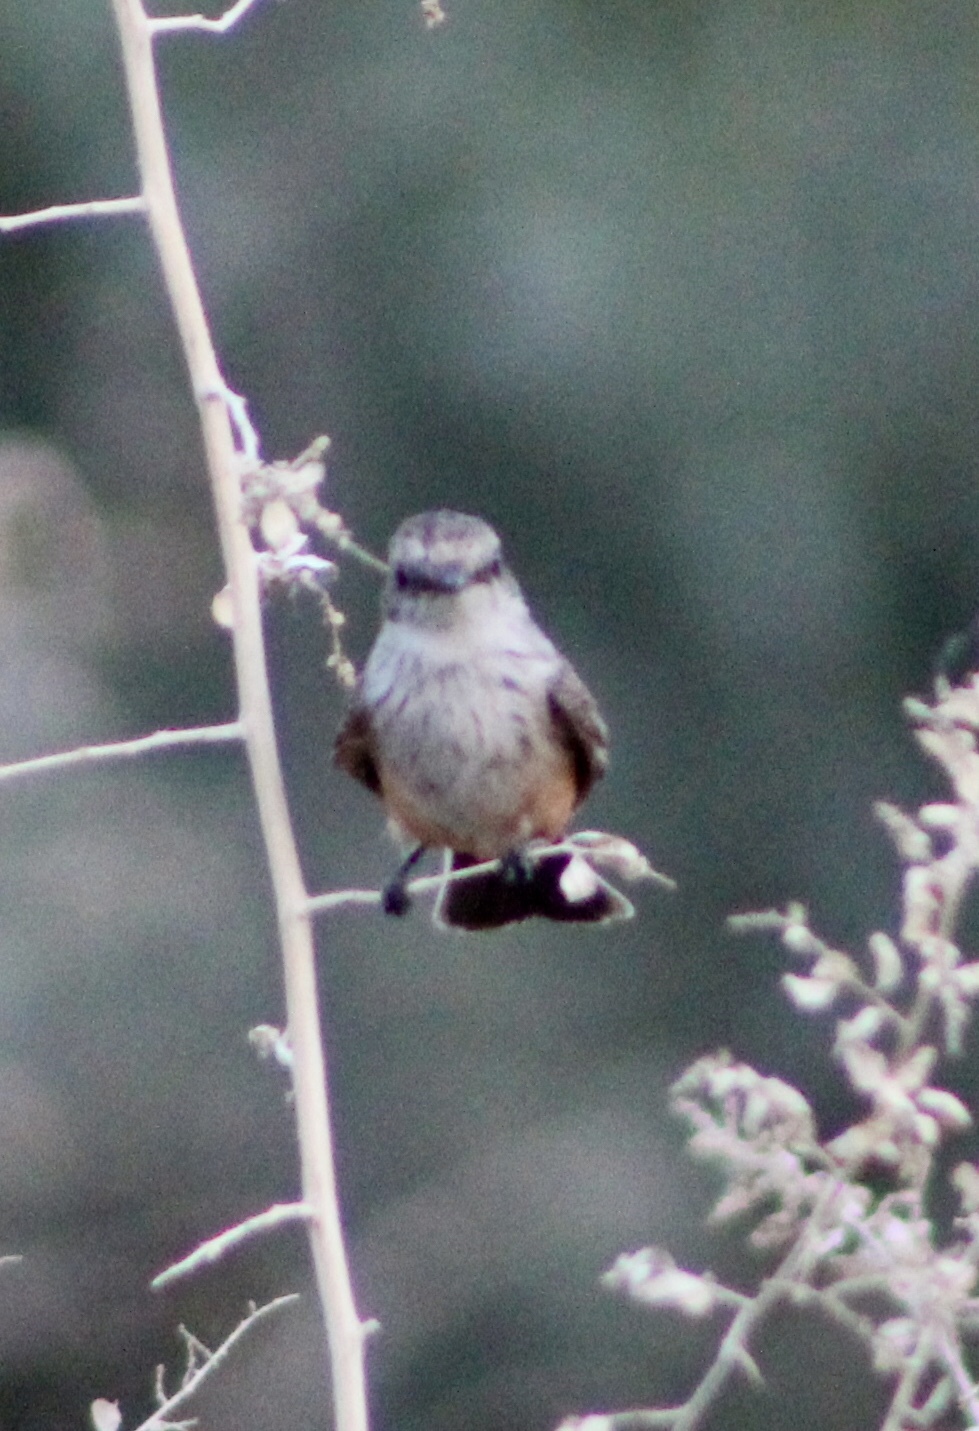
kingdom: Animalia
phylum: Chordata
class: Aves
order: Passeriformes
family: Tyrannidae
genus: Pyrocephalus
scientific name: Pyrocephalus rubinus
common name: Vermilion flycatcher
